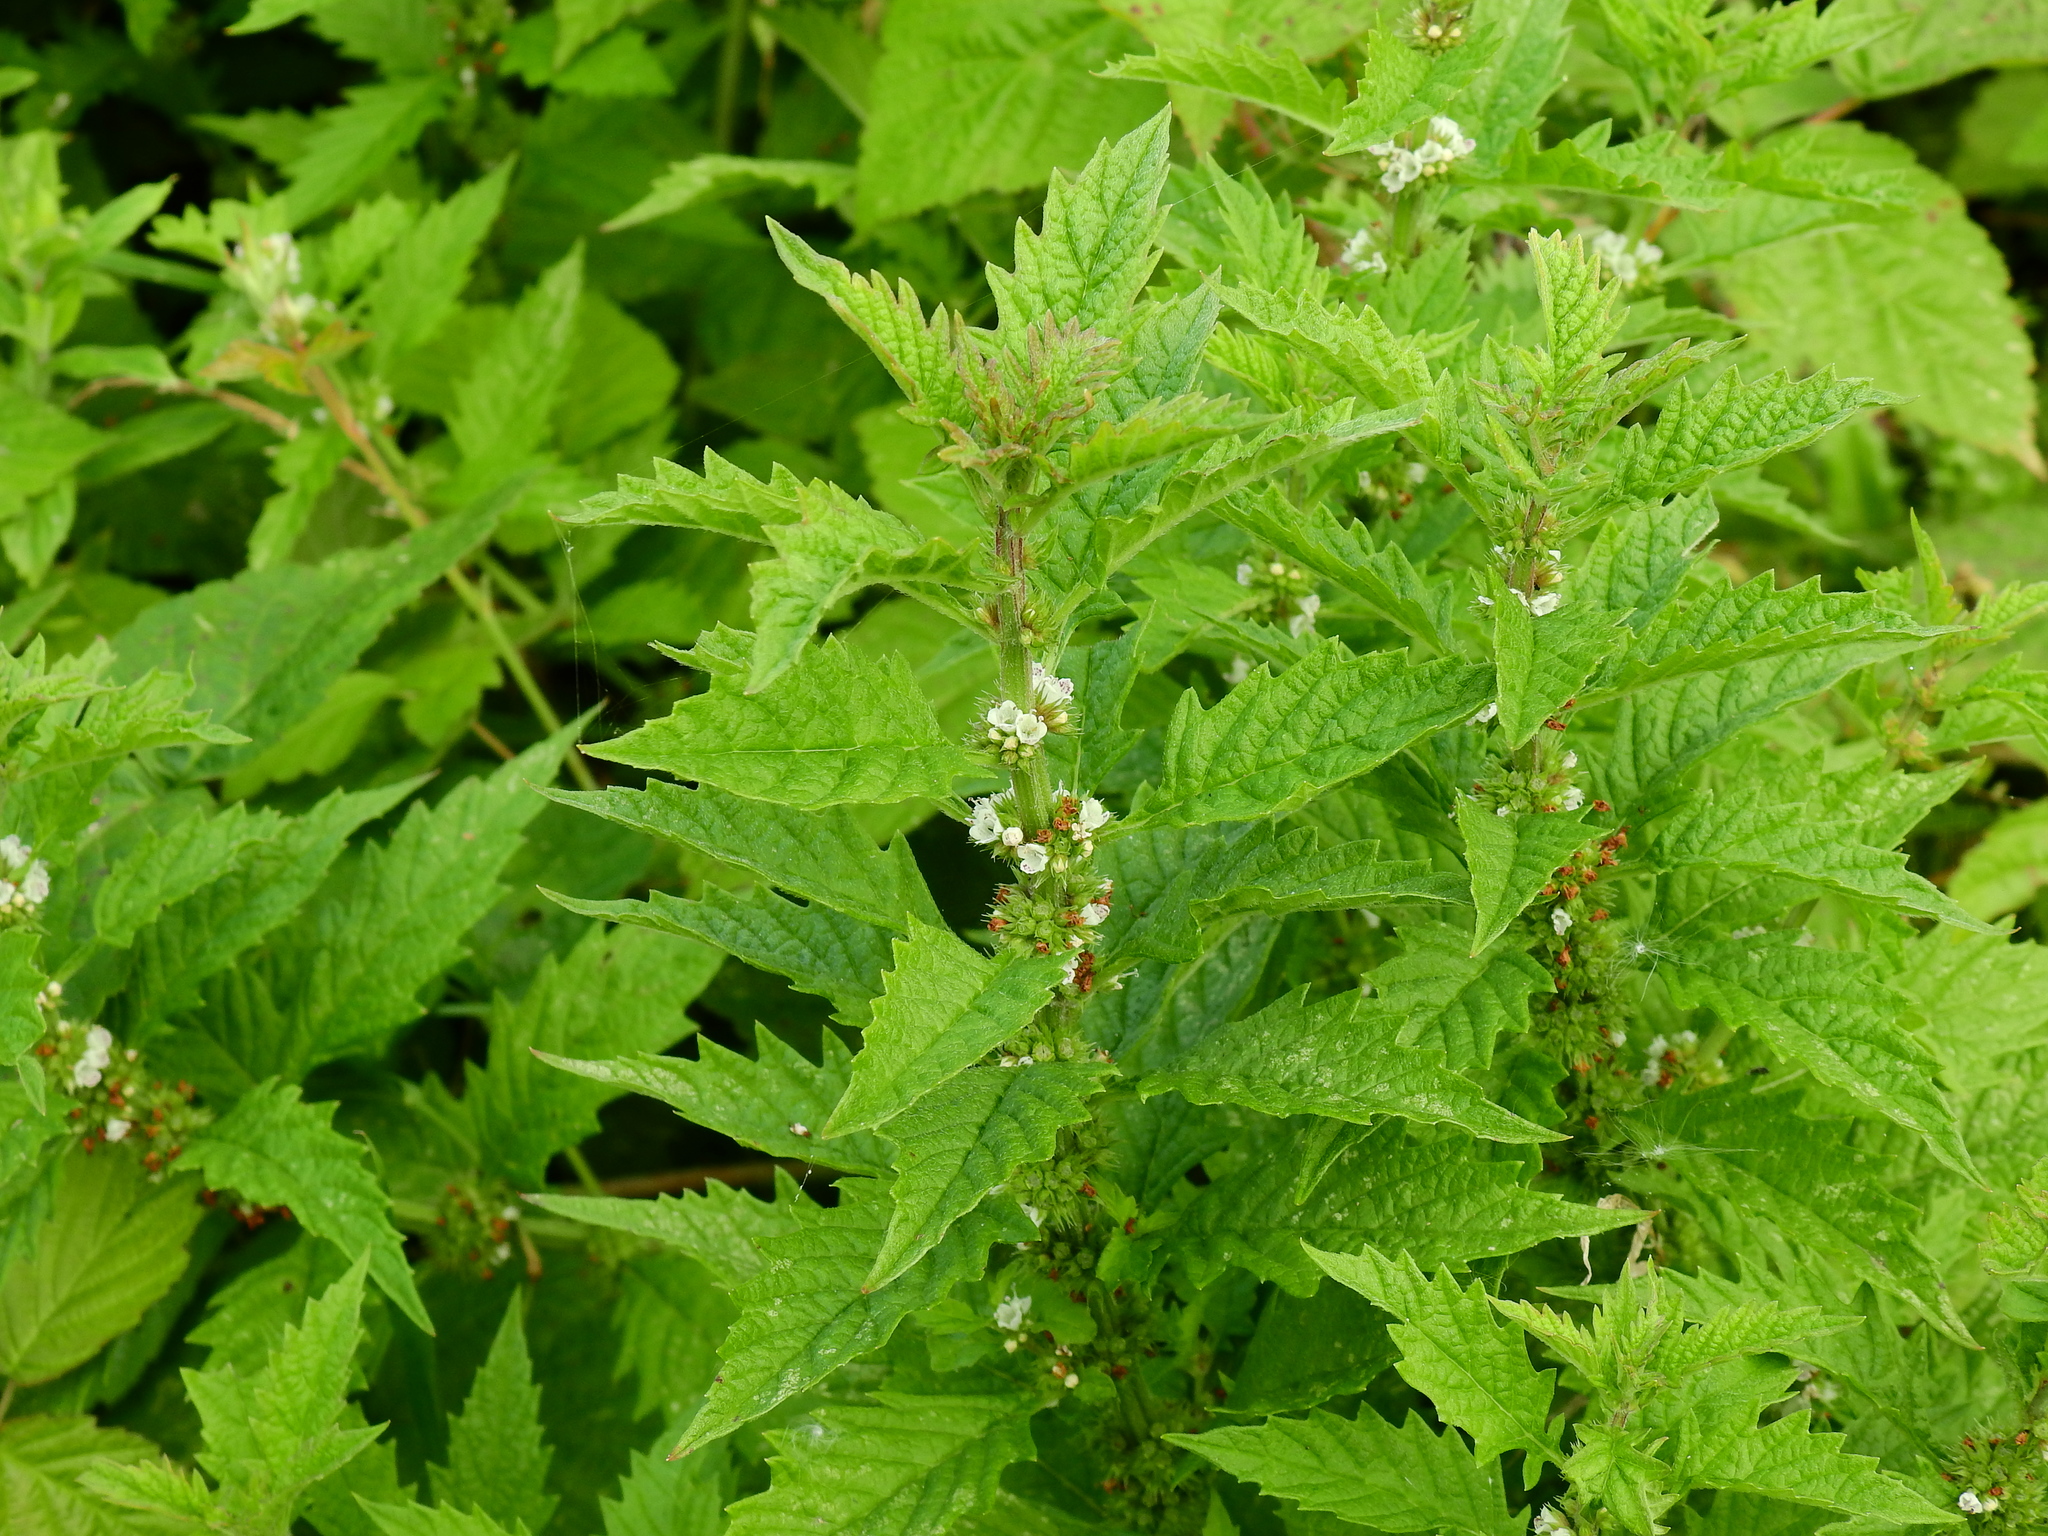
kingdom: Plantae
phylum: Tracheophyta
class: Magnoliopsida
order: Lamiales
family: Lamiaceae
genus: Lycopus
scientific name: Lycopus europaeus
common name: European bugleweed
